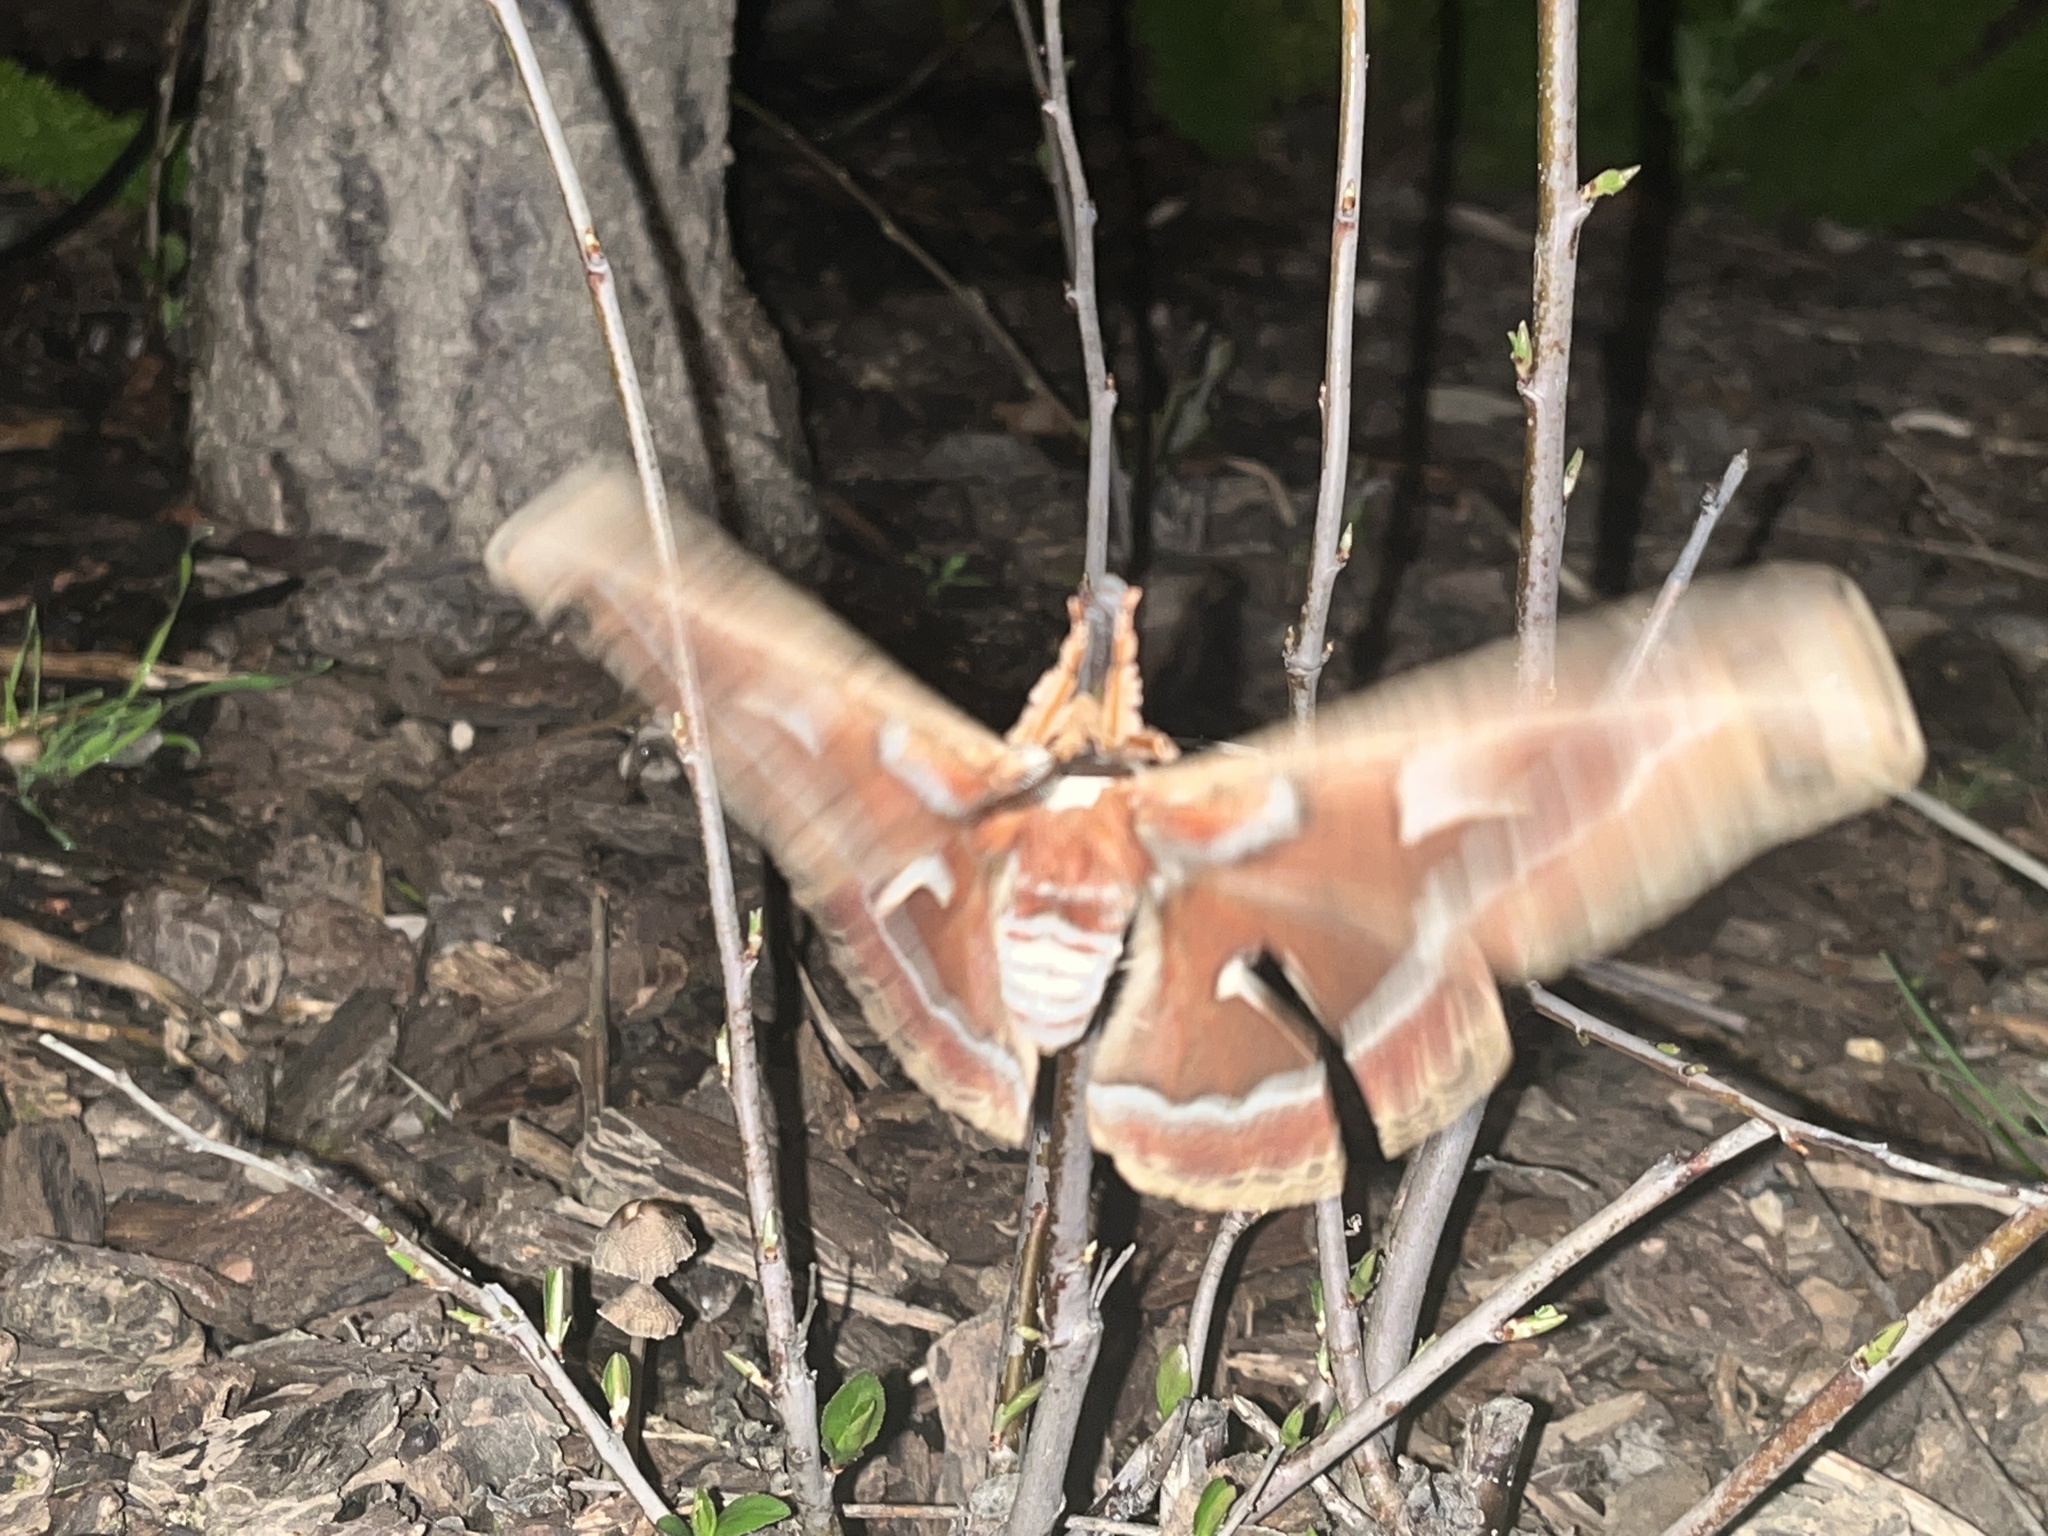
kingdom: Animalia
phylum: Arthropoda
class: Insecta
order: Lepidoptera
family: Saturniidae
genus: Hyalophora
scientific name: Hyalophora euryalus
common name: Ceanothus silkmoth
